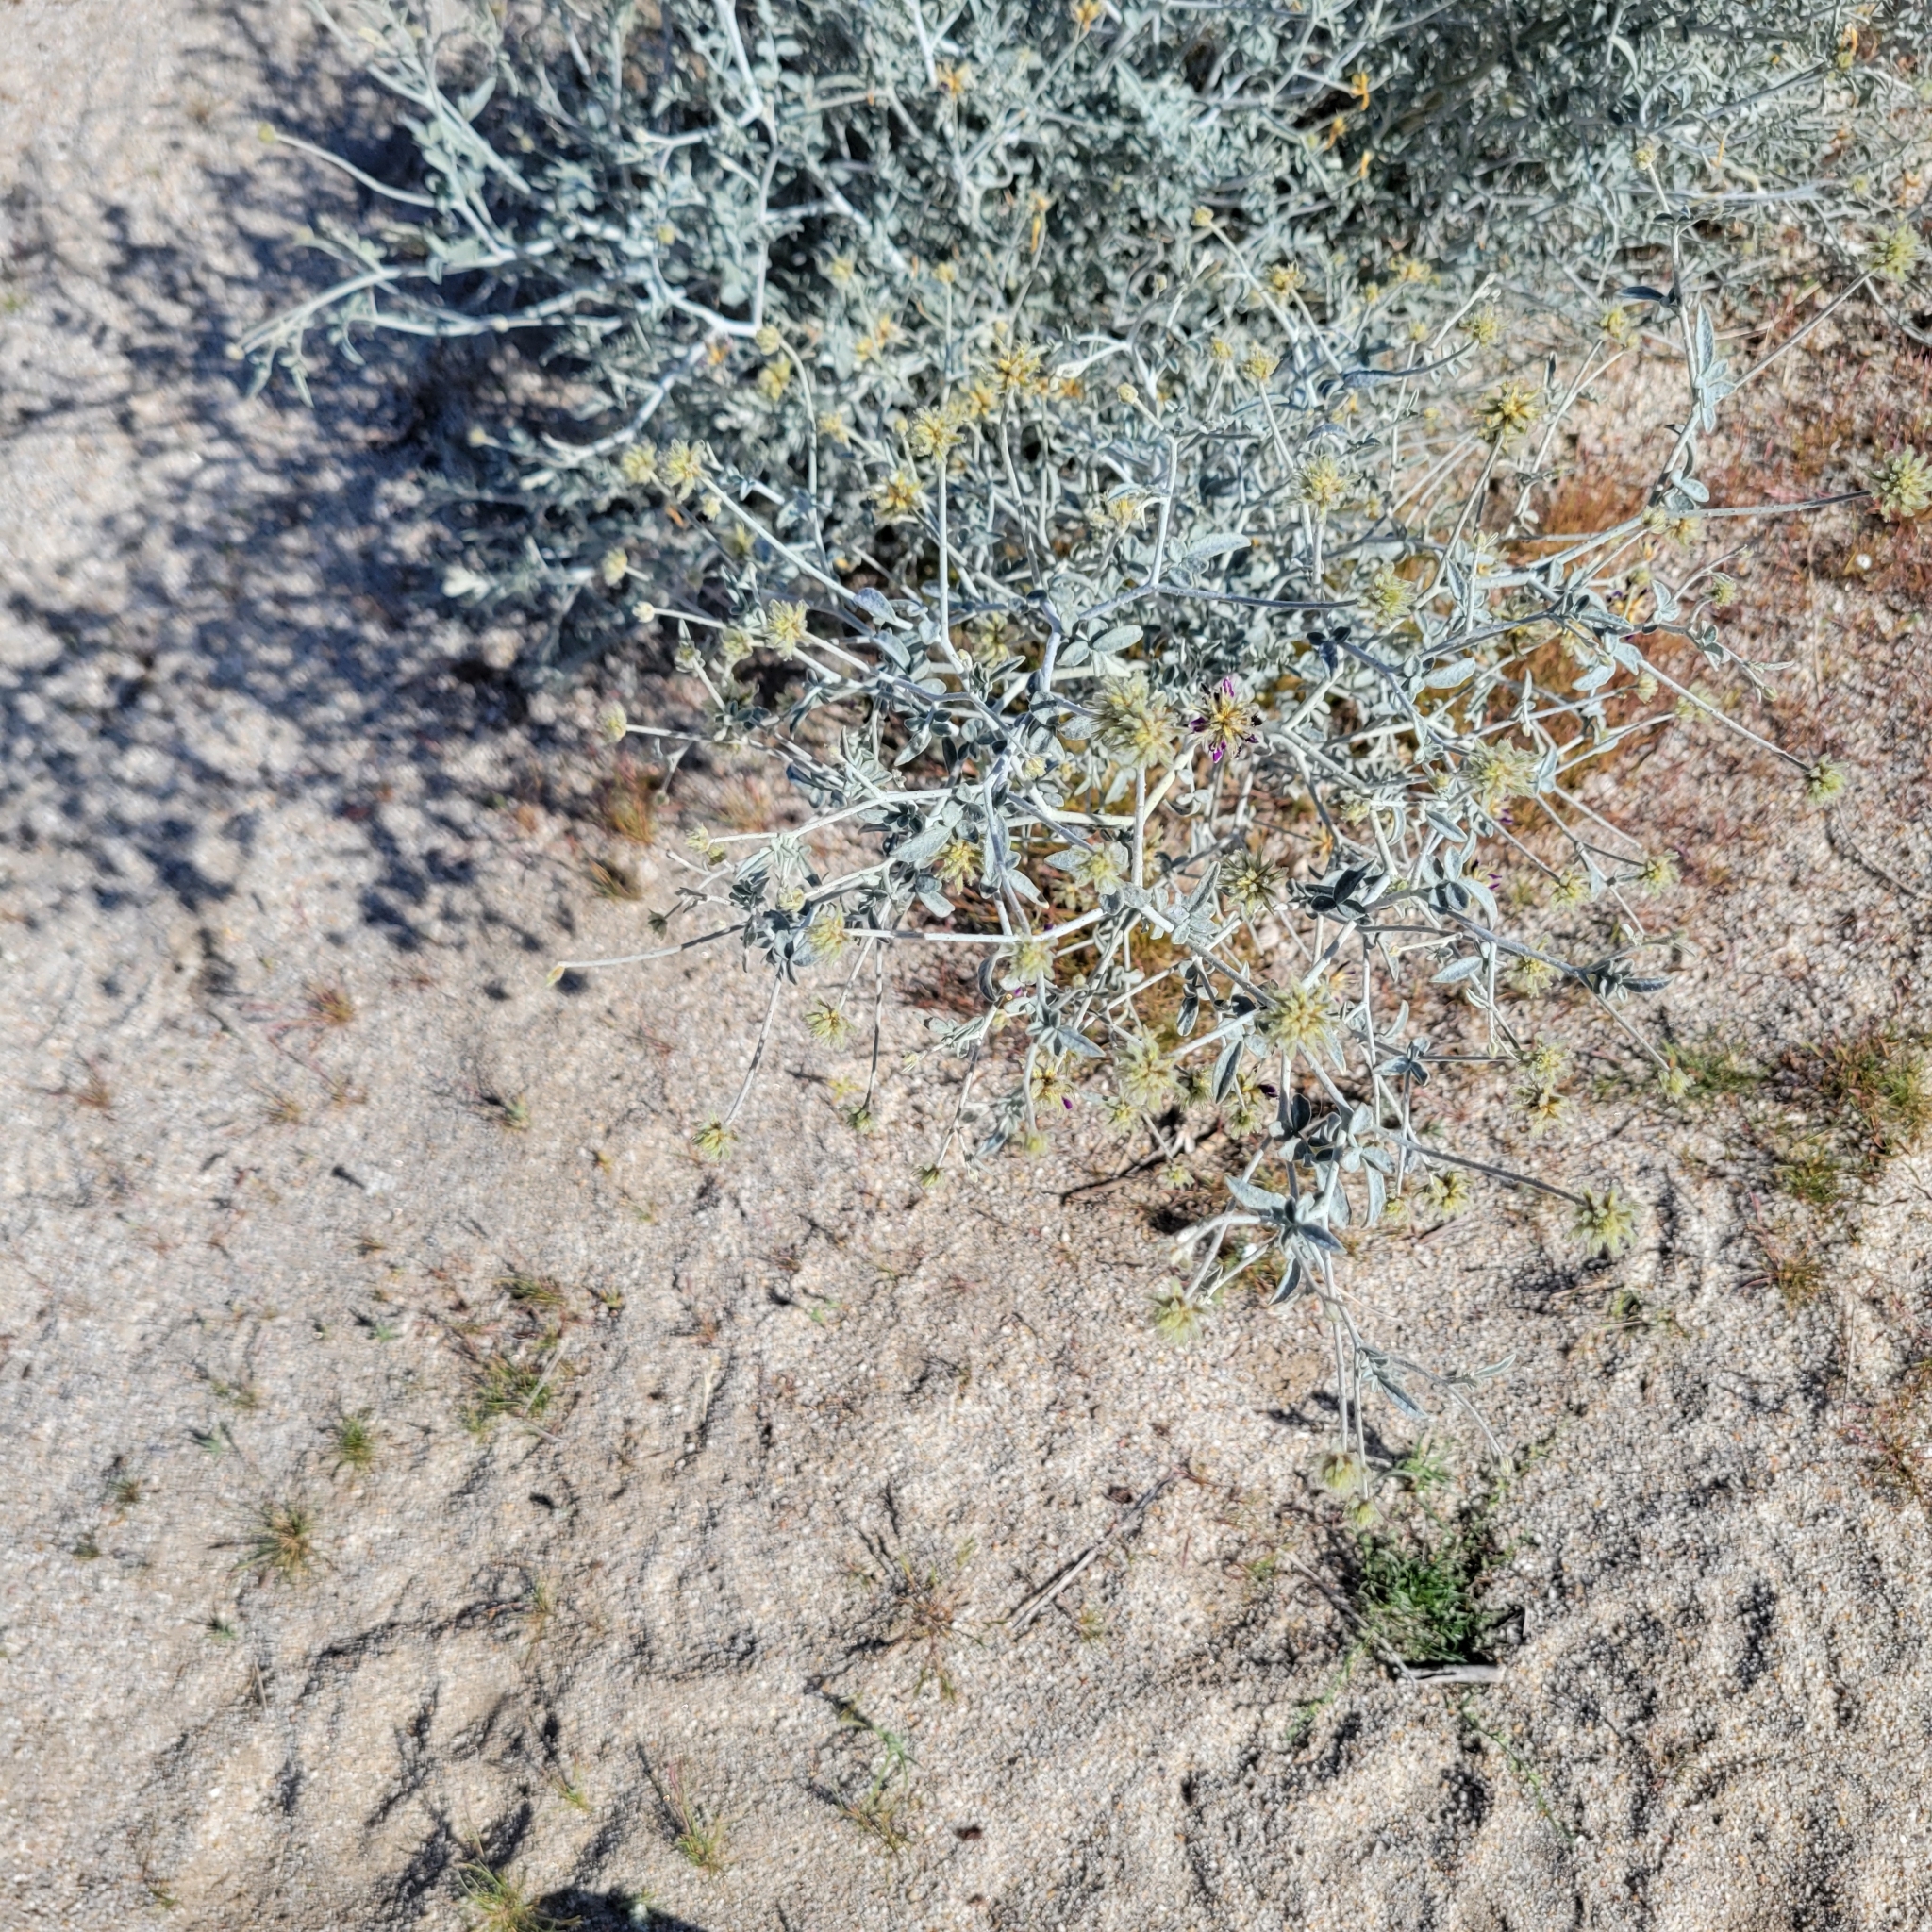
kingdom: Plantae
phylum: Tracheophyta
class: Magnoliopsida
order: Fabales
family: Fabaceae
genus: Psorothamnus
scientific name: Psorothamnus emoryi
